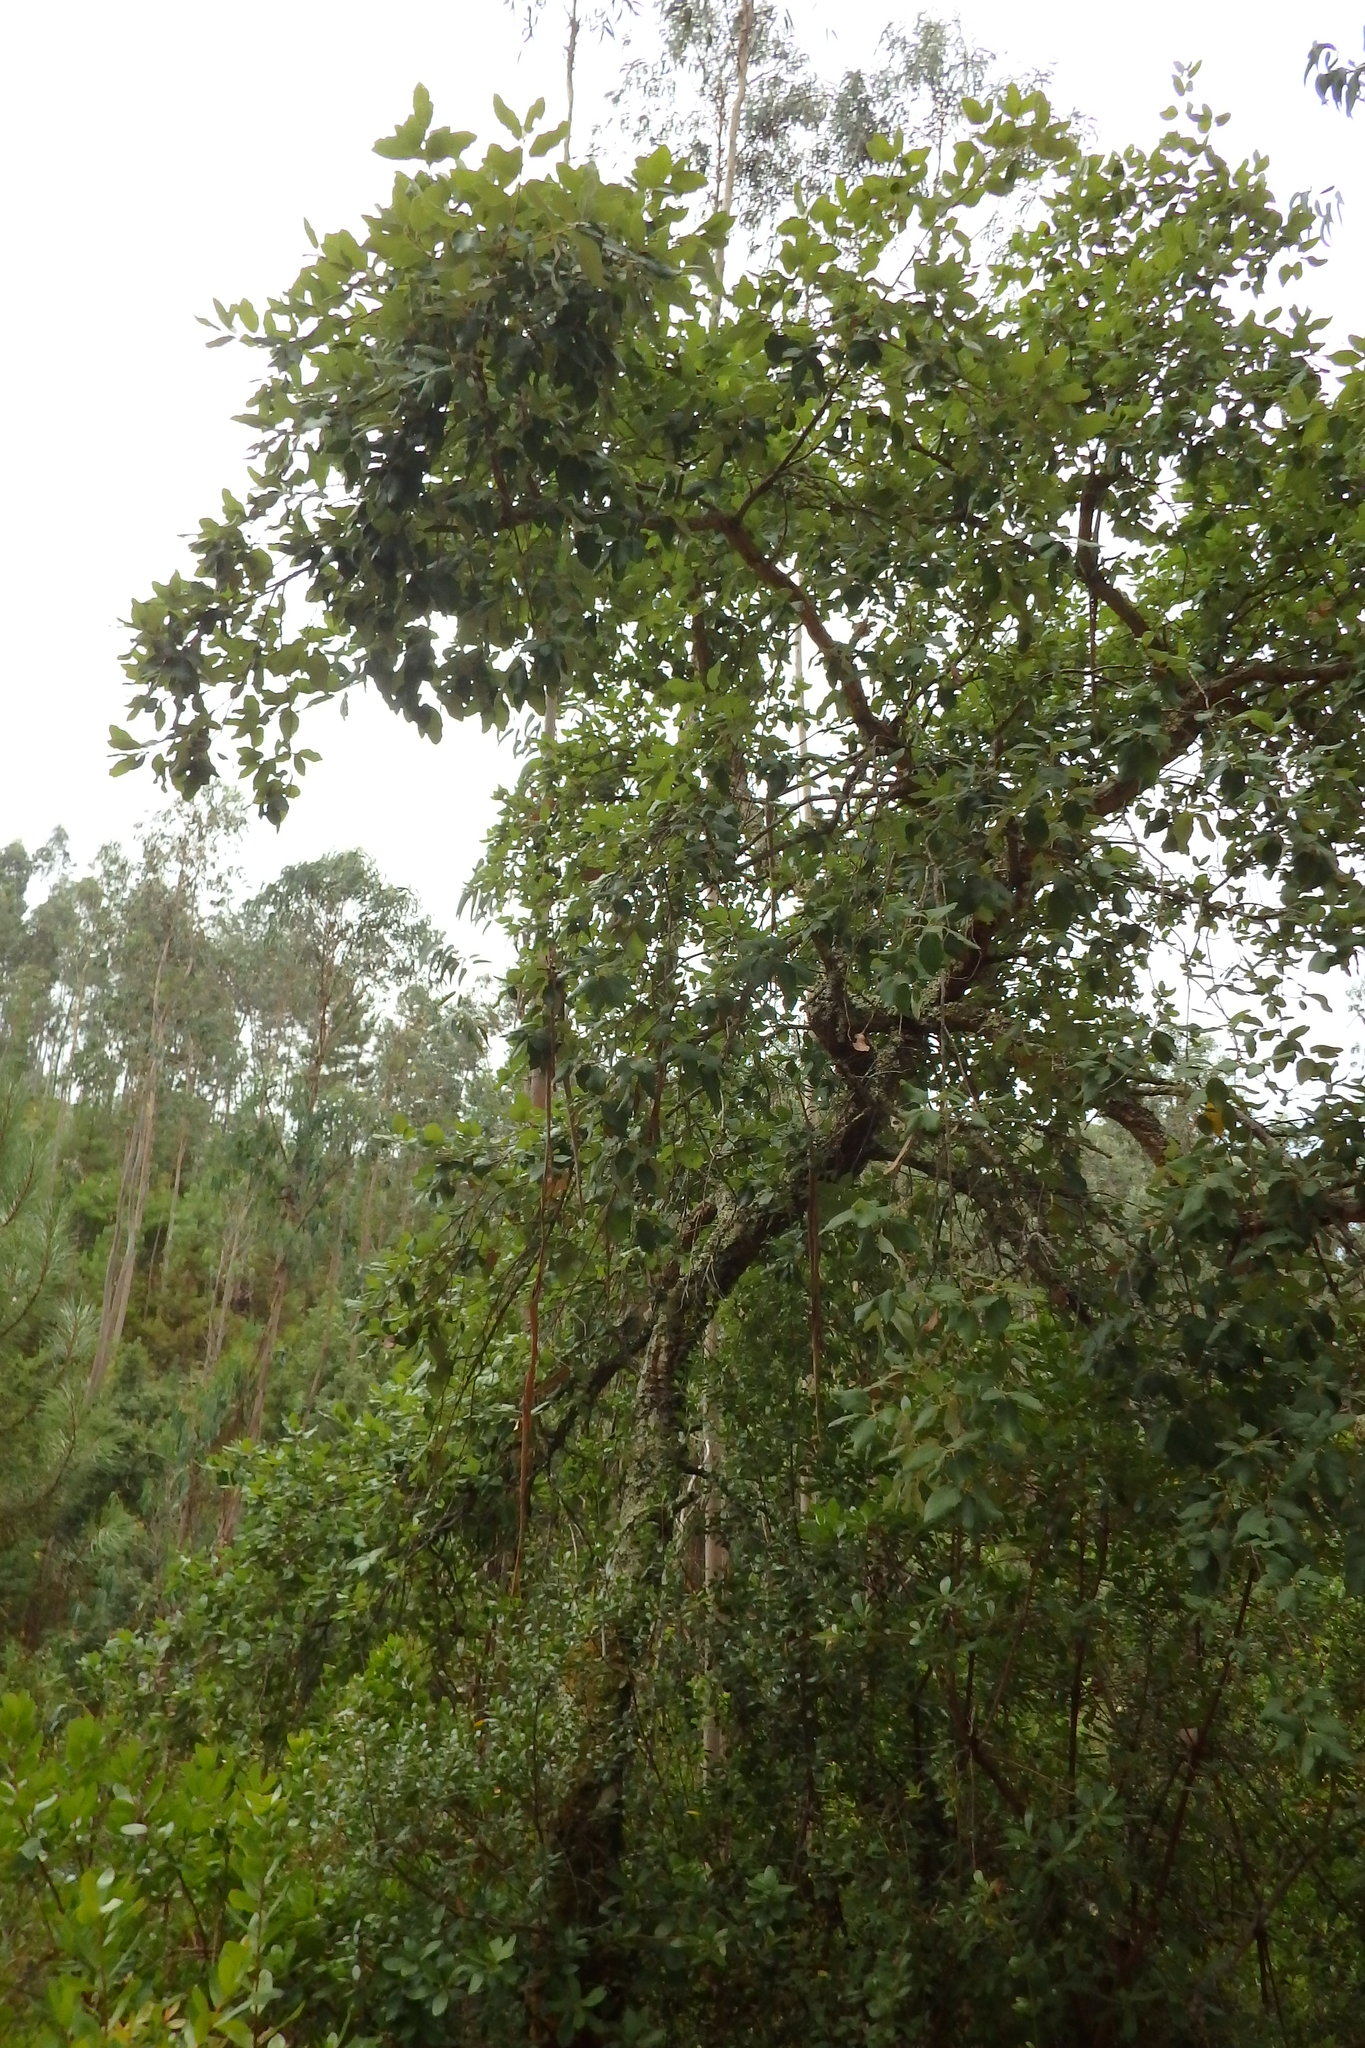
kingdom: Plantae
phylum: Tracheophyta
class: Magnoliopsida
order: Fagales
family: Fagaceae
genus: Quercus
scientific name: Quercus suber
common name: Cork oak
